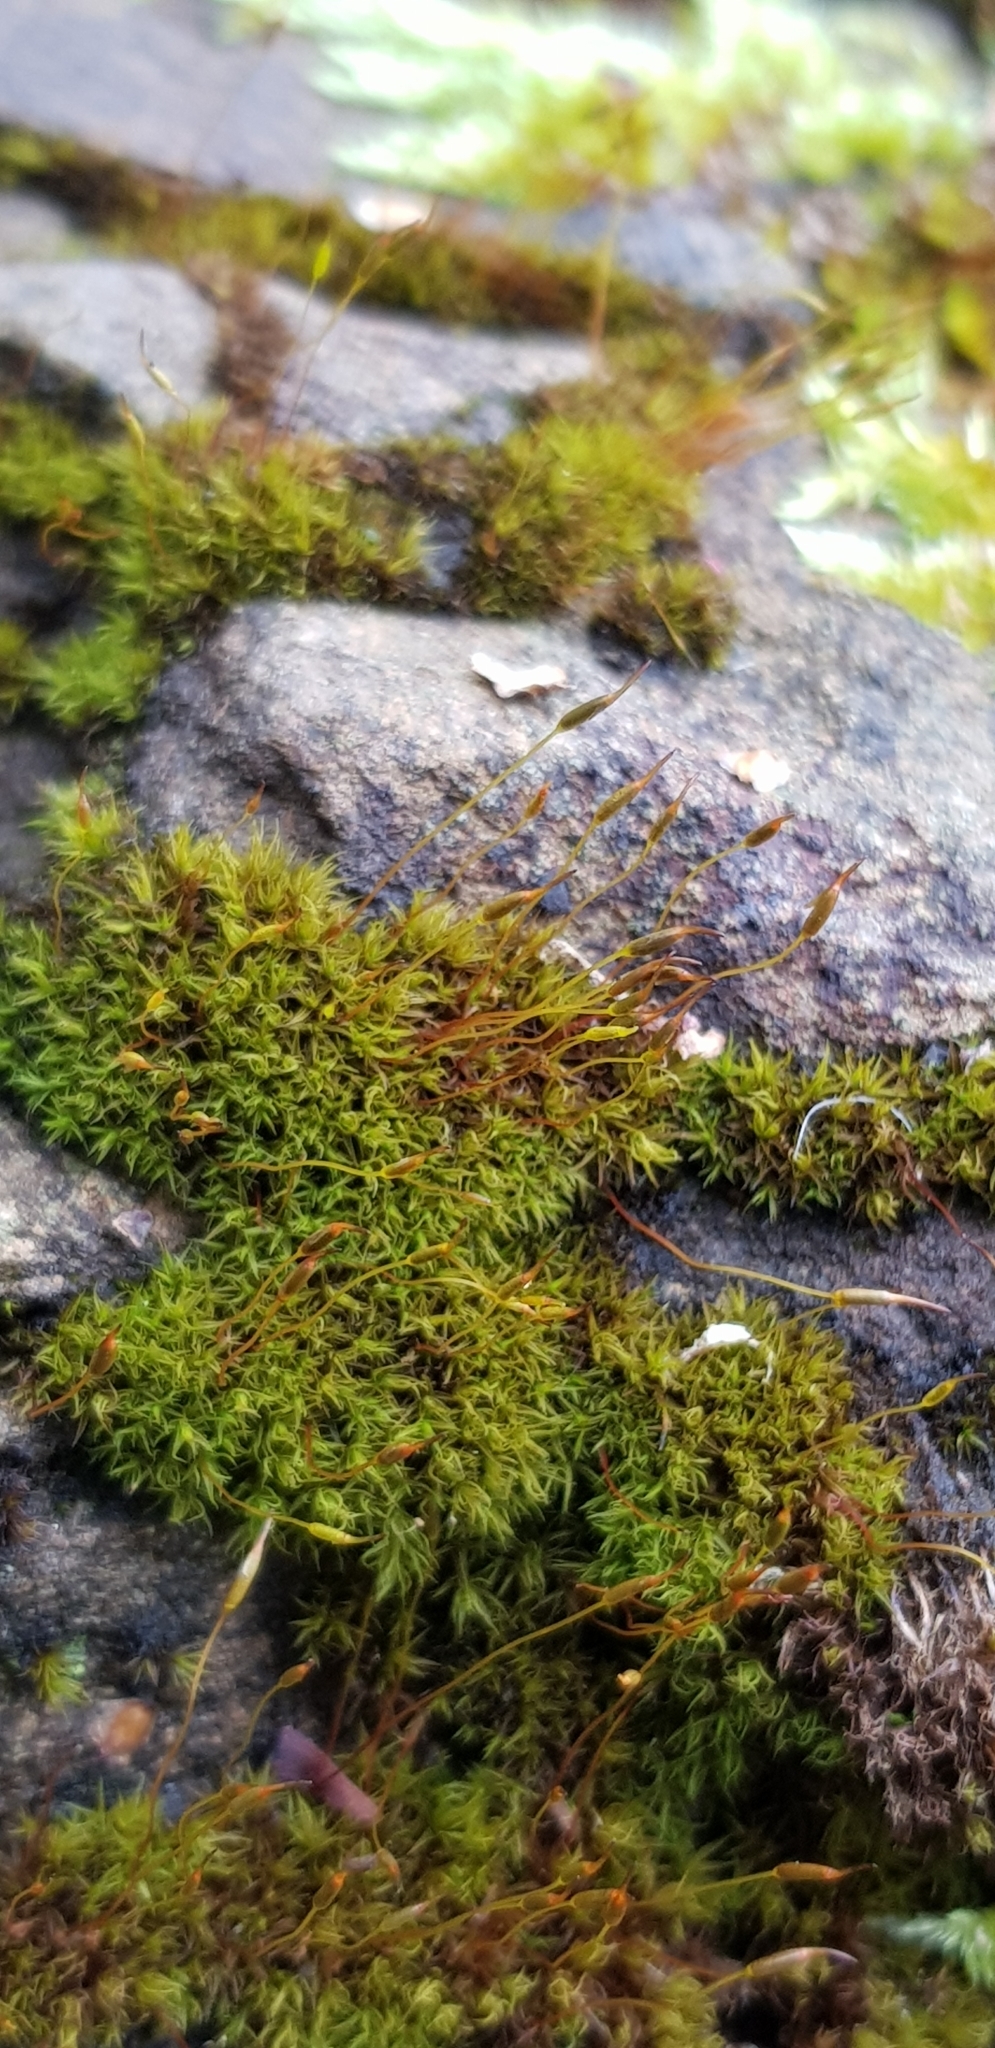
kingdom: Plantae
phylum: Bryophyta
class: Bryopsida
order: Dicranales
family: Rhabdoweisiaceae
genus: Dicranoweisia
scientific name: Dicranoweisia cirrata
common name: Common pincushion
